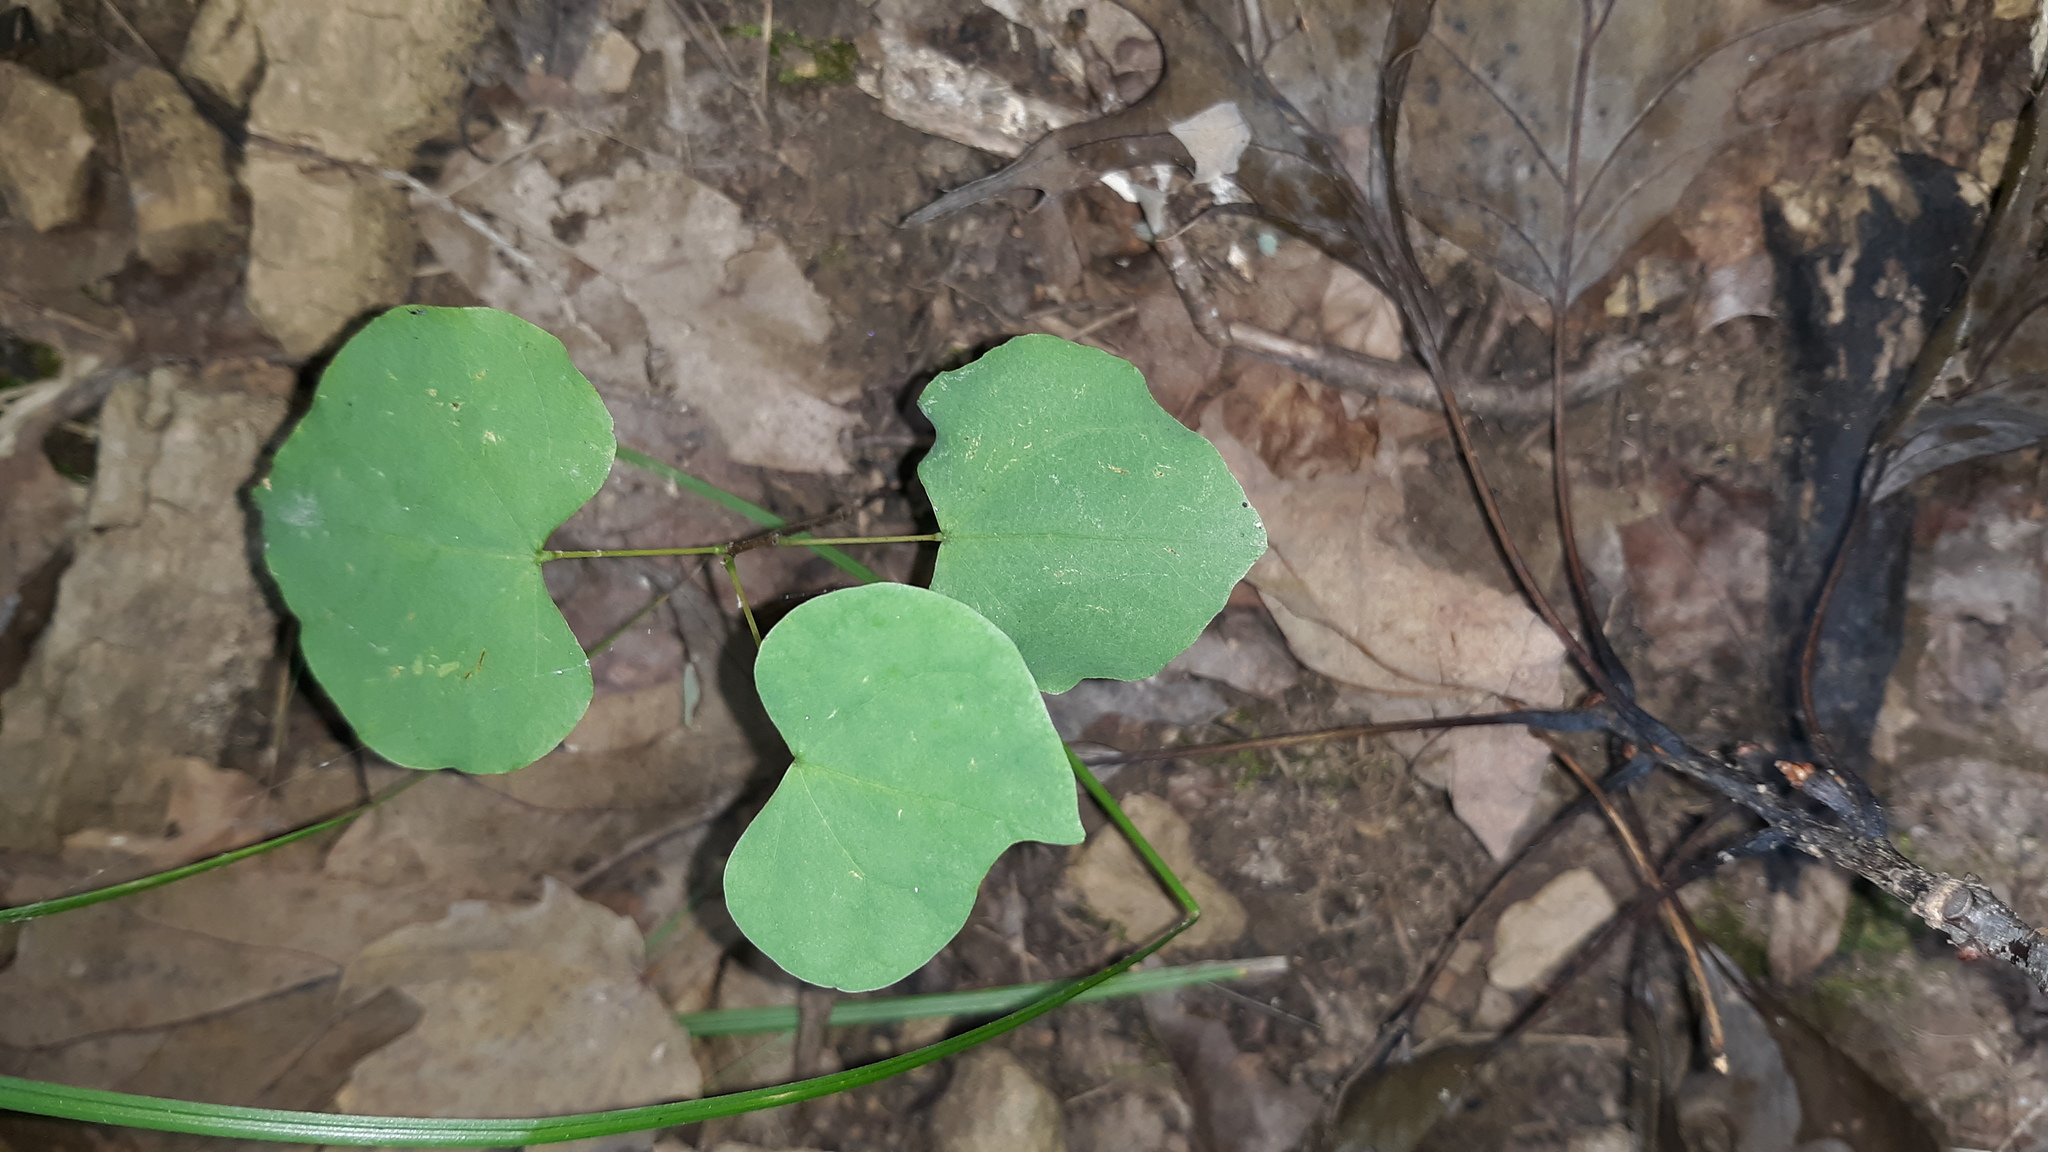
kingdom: Plantae
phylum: Tracheophyta
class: Magnoliopsida
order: Fabales
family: Fabaceae
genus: Cercis
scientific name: Cercis canadensis
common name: Eastern redbud
